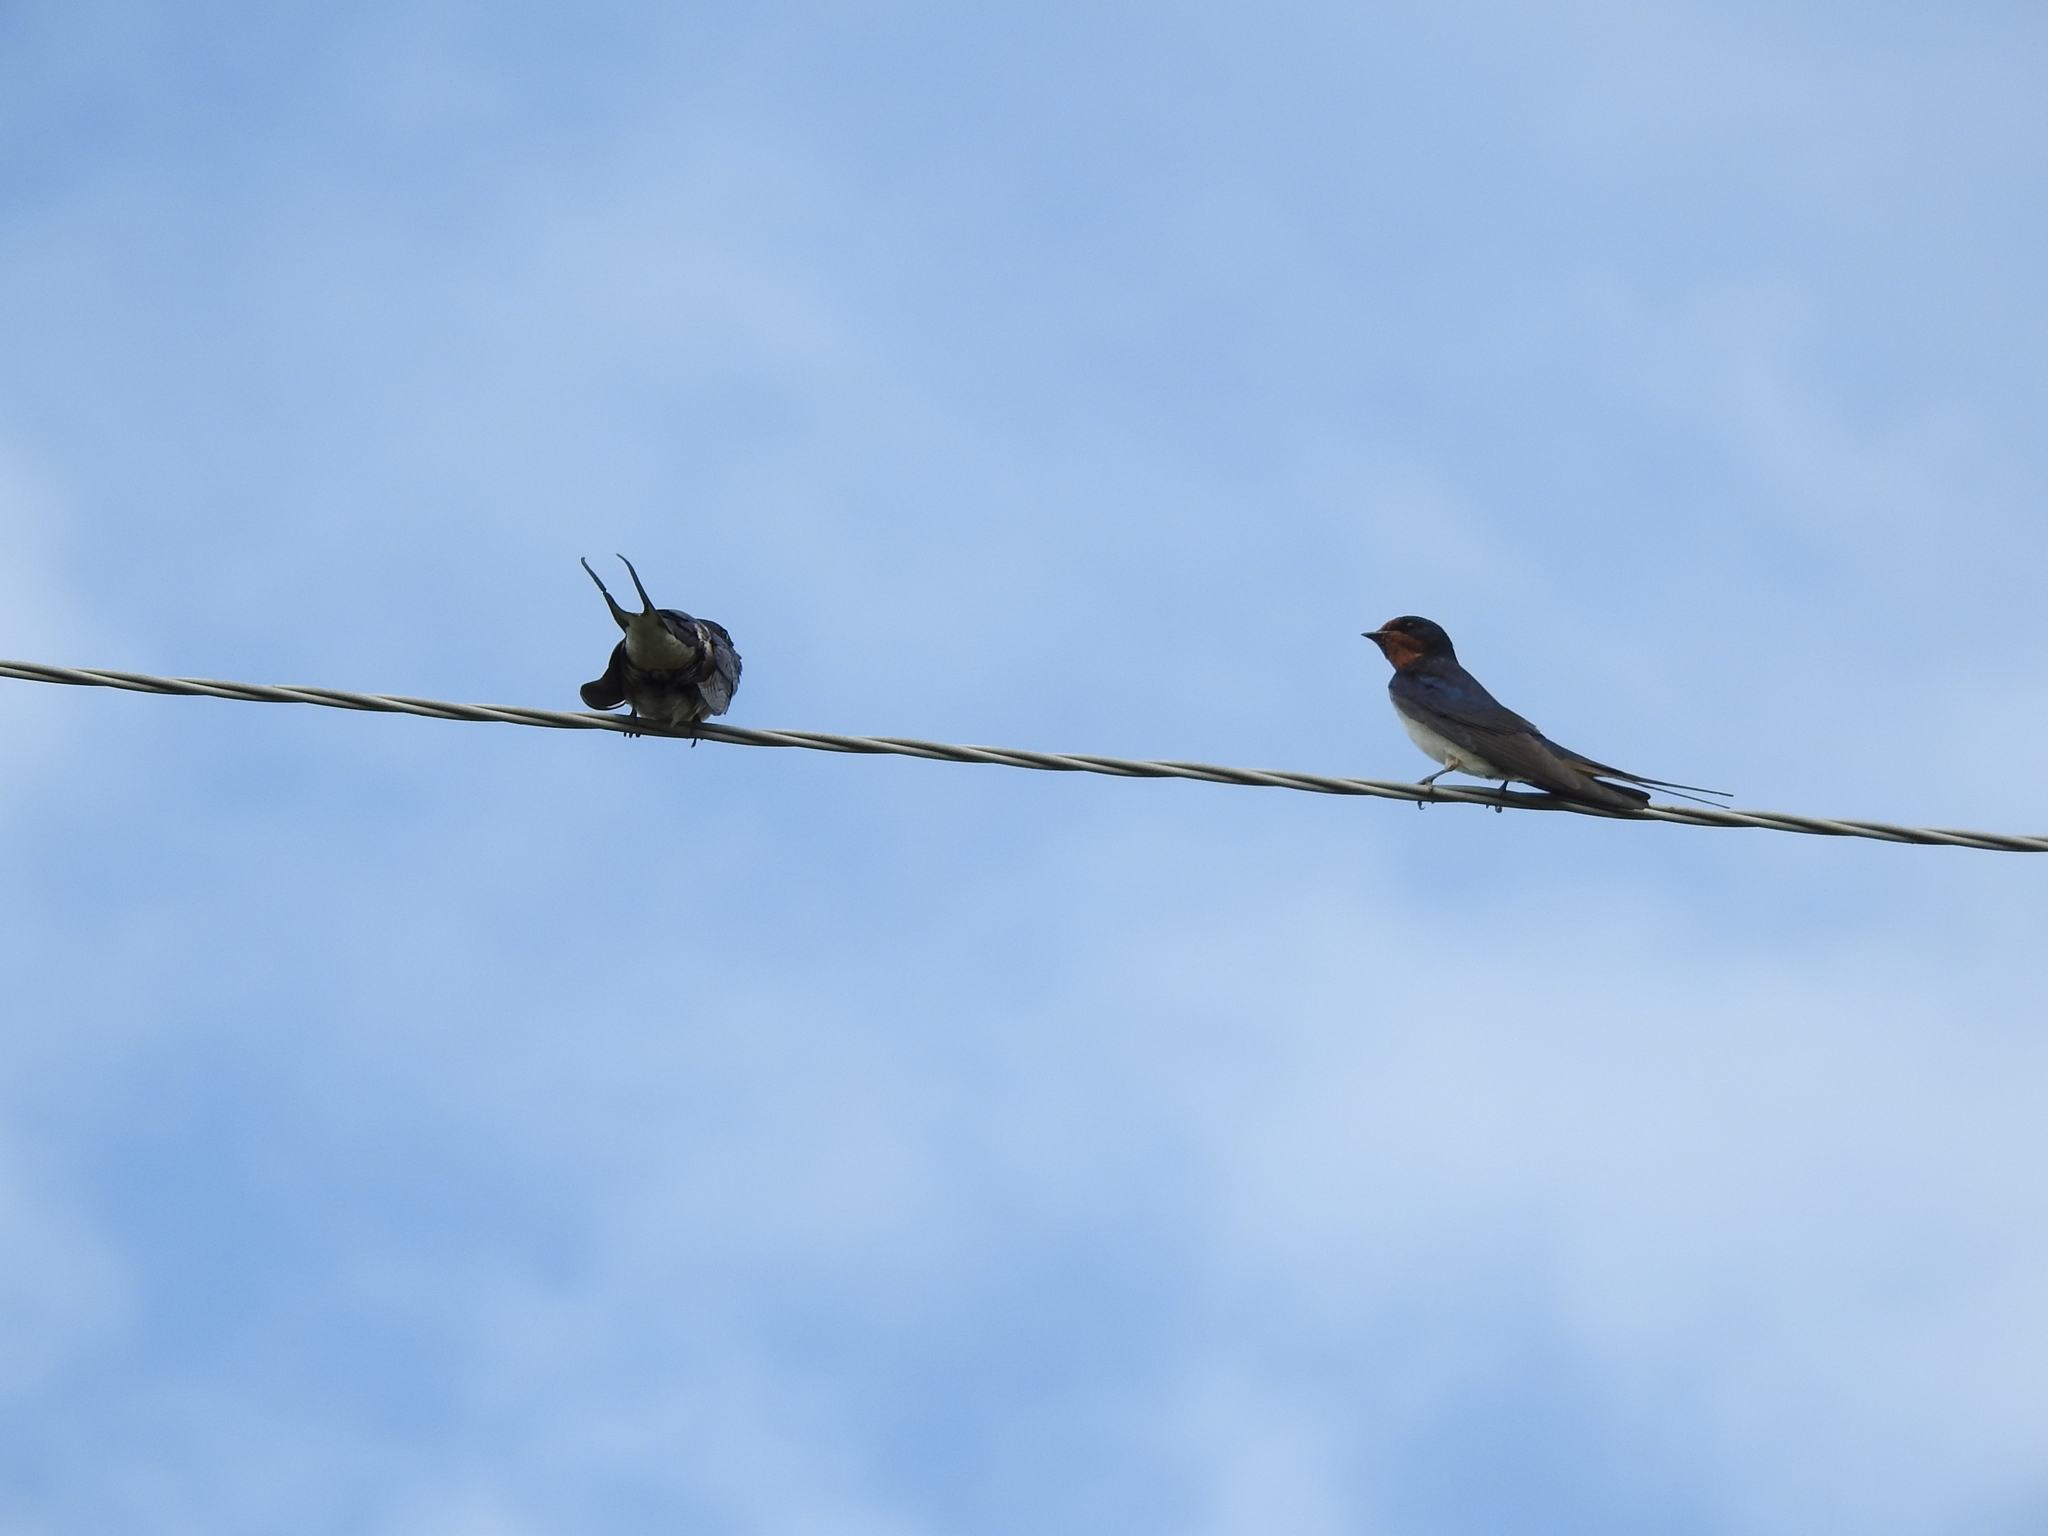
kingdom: Animalia
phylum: Chordata
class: Aves
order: Passeriformes
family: Hirundinidae
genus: Hirundo
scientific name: Hirundo rustica
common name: Barn swallow
